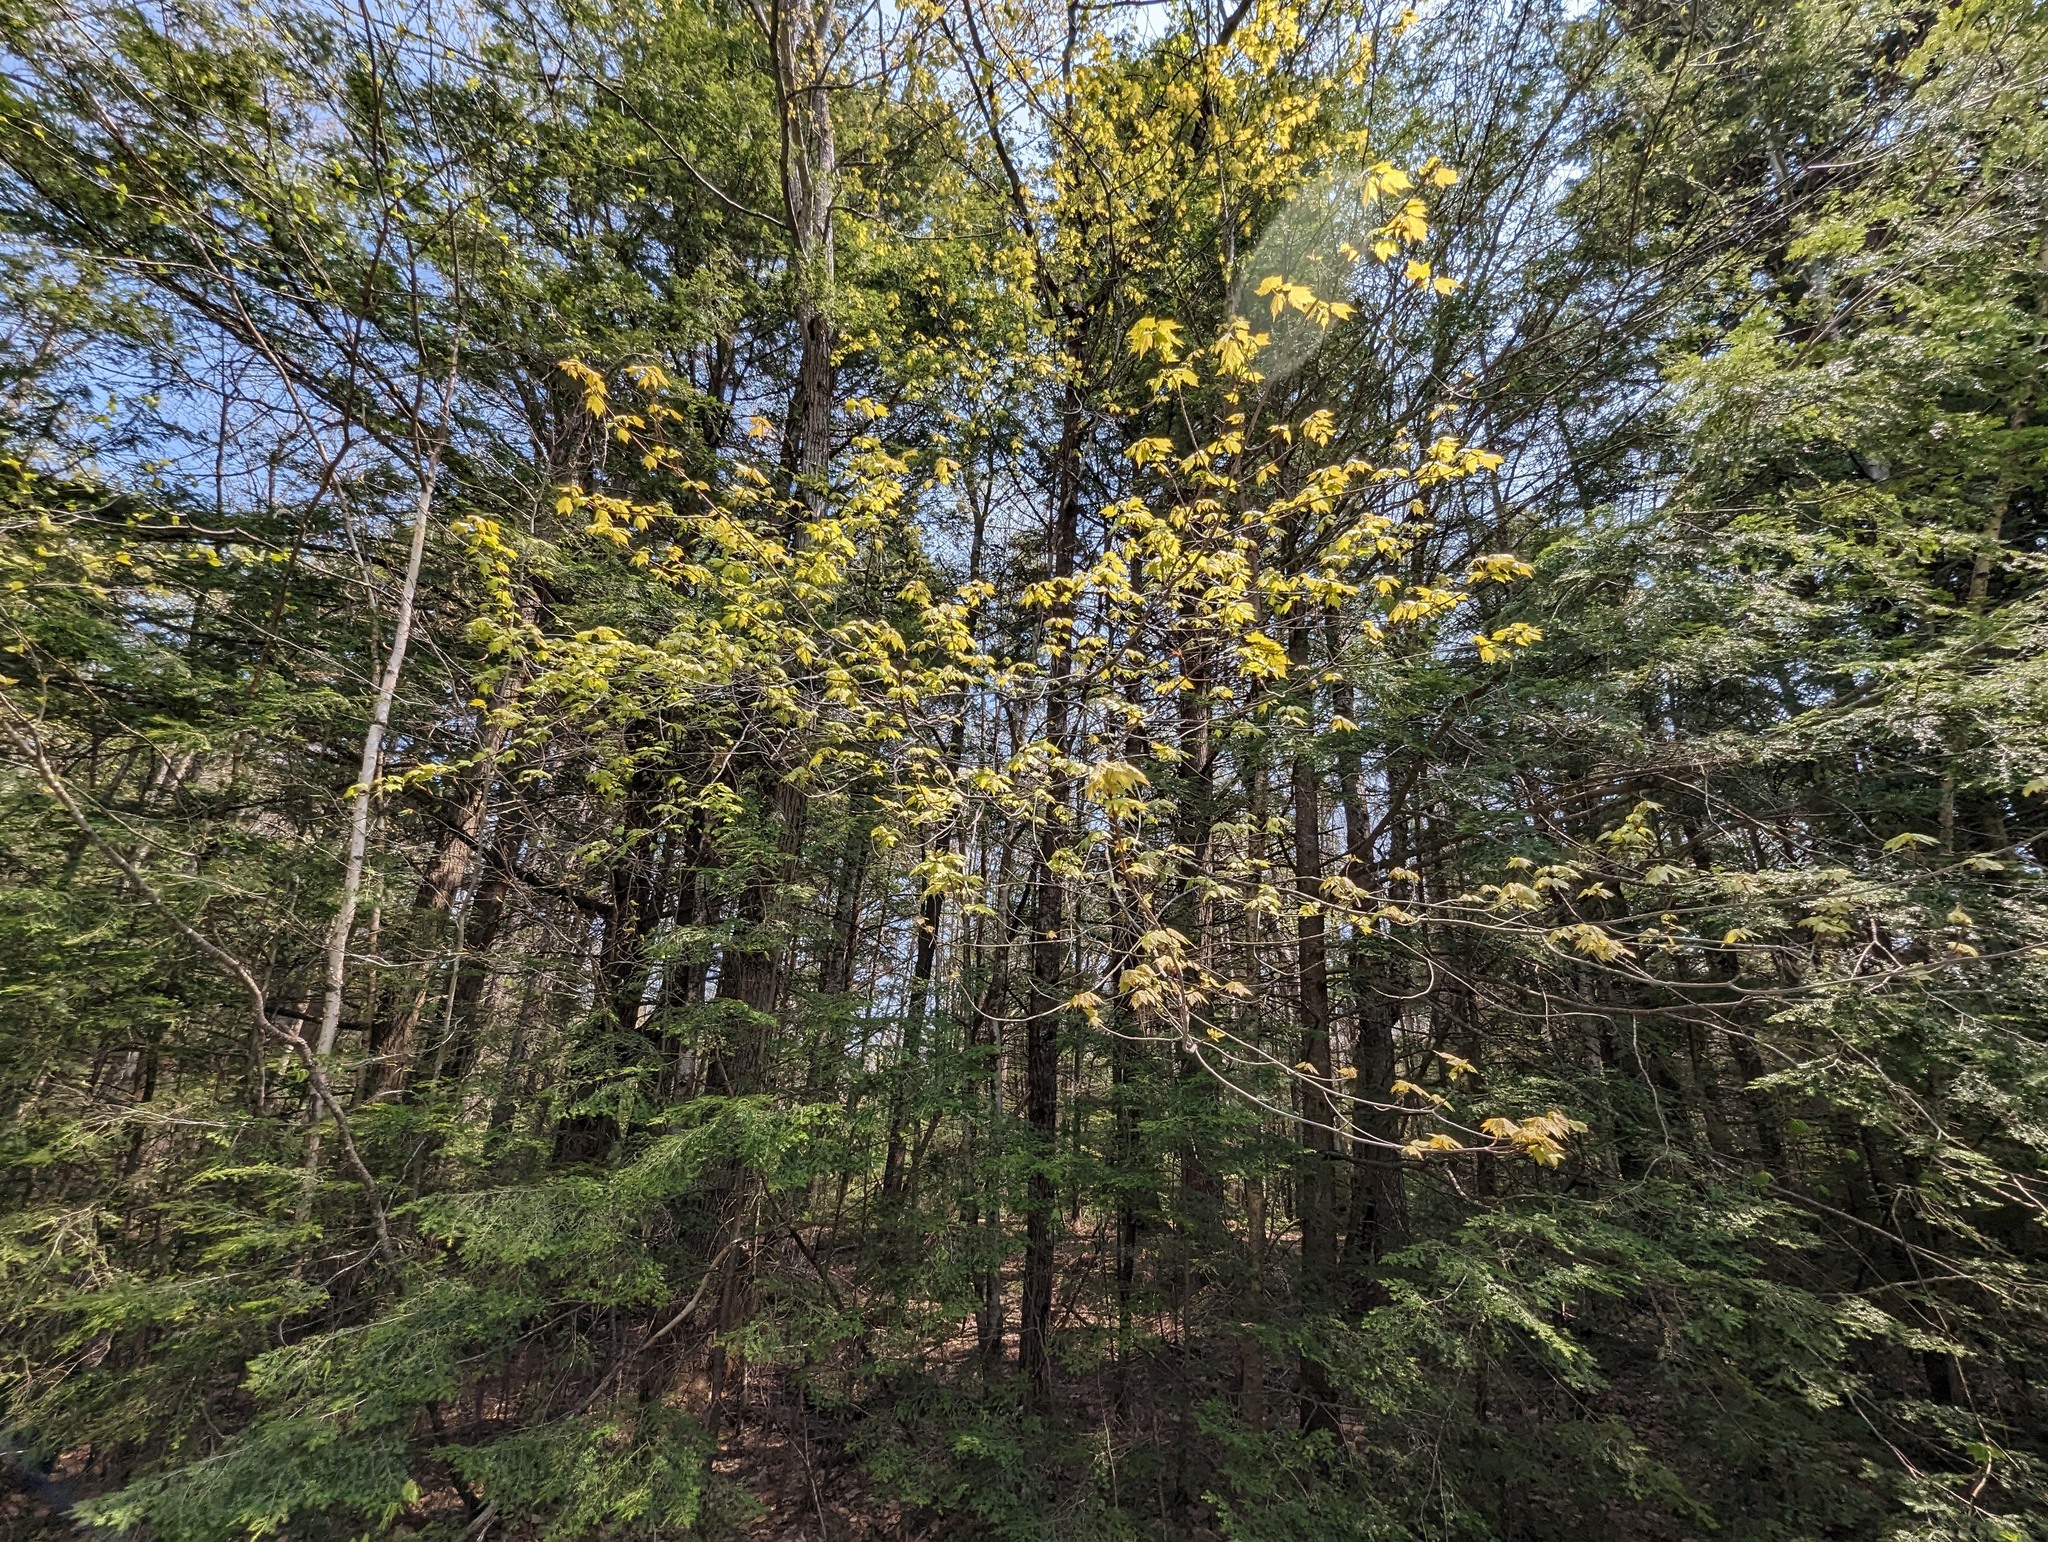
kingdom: Plantae
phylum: Tracheophyta
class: Magnoliopsida
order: Sapindales
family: Sapindaceae
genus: Acer
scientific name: Acer rubrum
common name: Red maple
